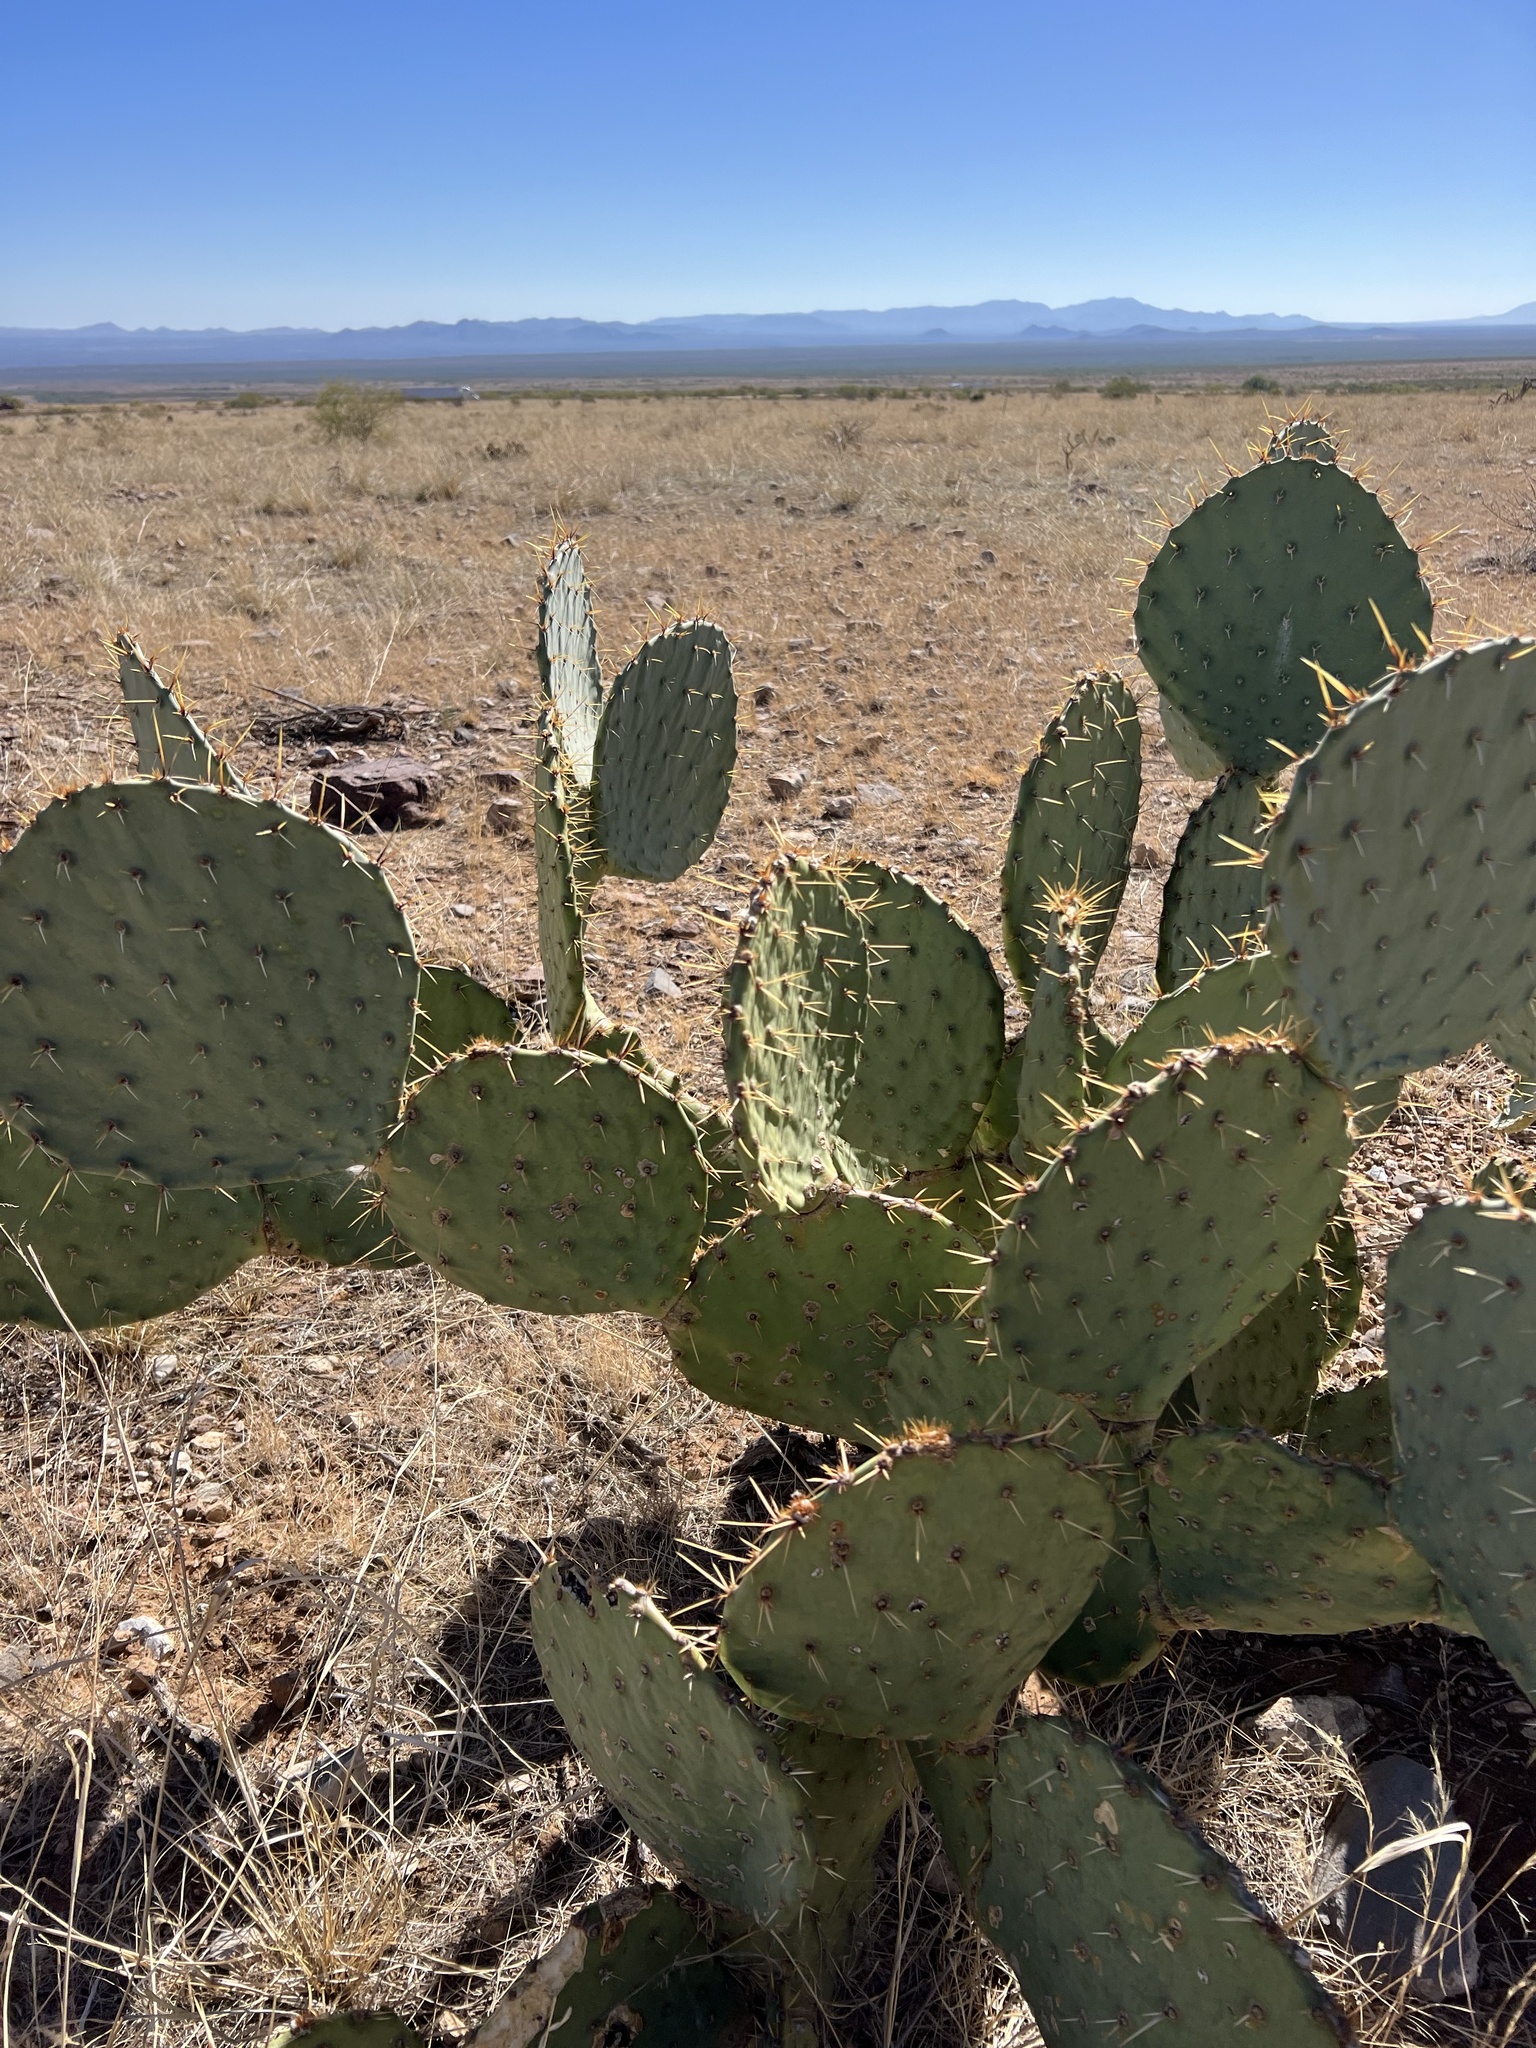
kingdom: Plantae
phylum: Tracheophyta
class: Magnoliopsida
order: Caryophyllales
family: Cactaceae
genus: Opuntia
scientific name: Opuntia engelmannii
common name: Cactus-apple
